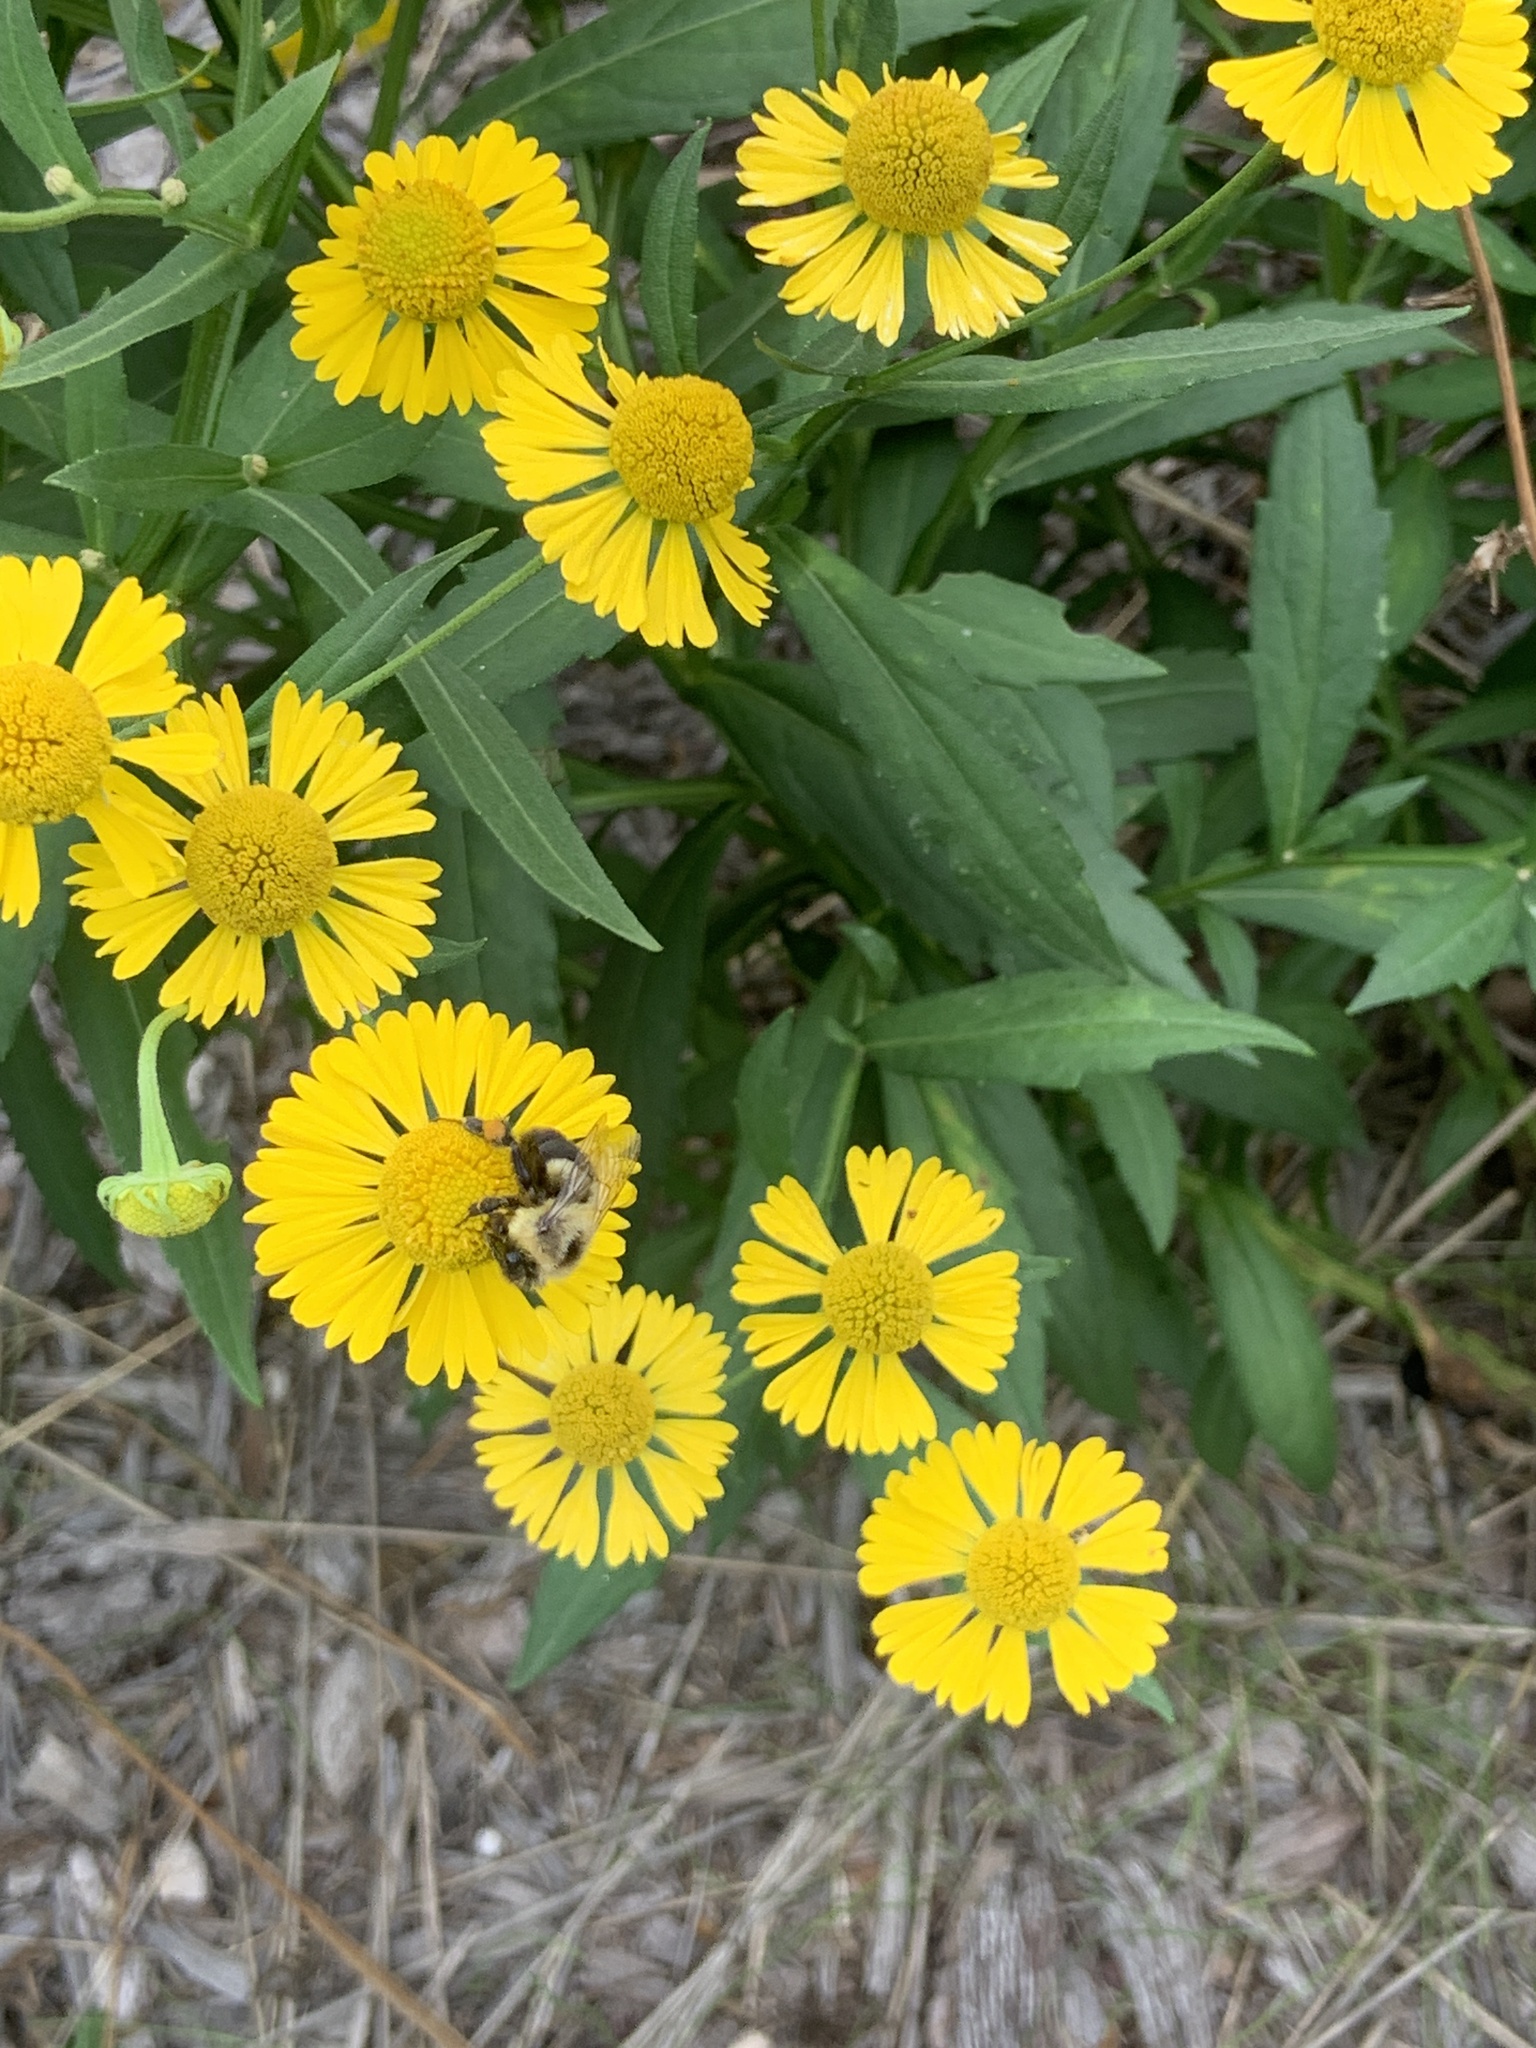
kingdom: Animalia
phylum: Arthropoda
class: Insecta
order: Hymenoptera
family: Apidae
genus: Bombus
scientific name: Bombus impatiens
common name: Common eastern bumble bee
